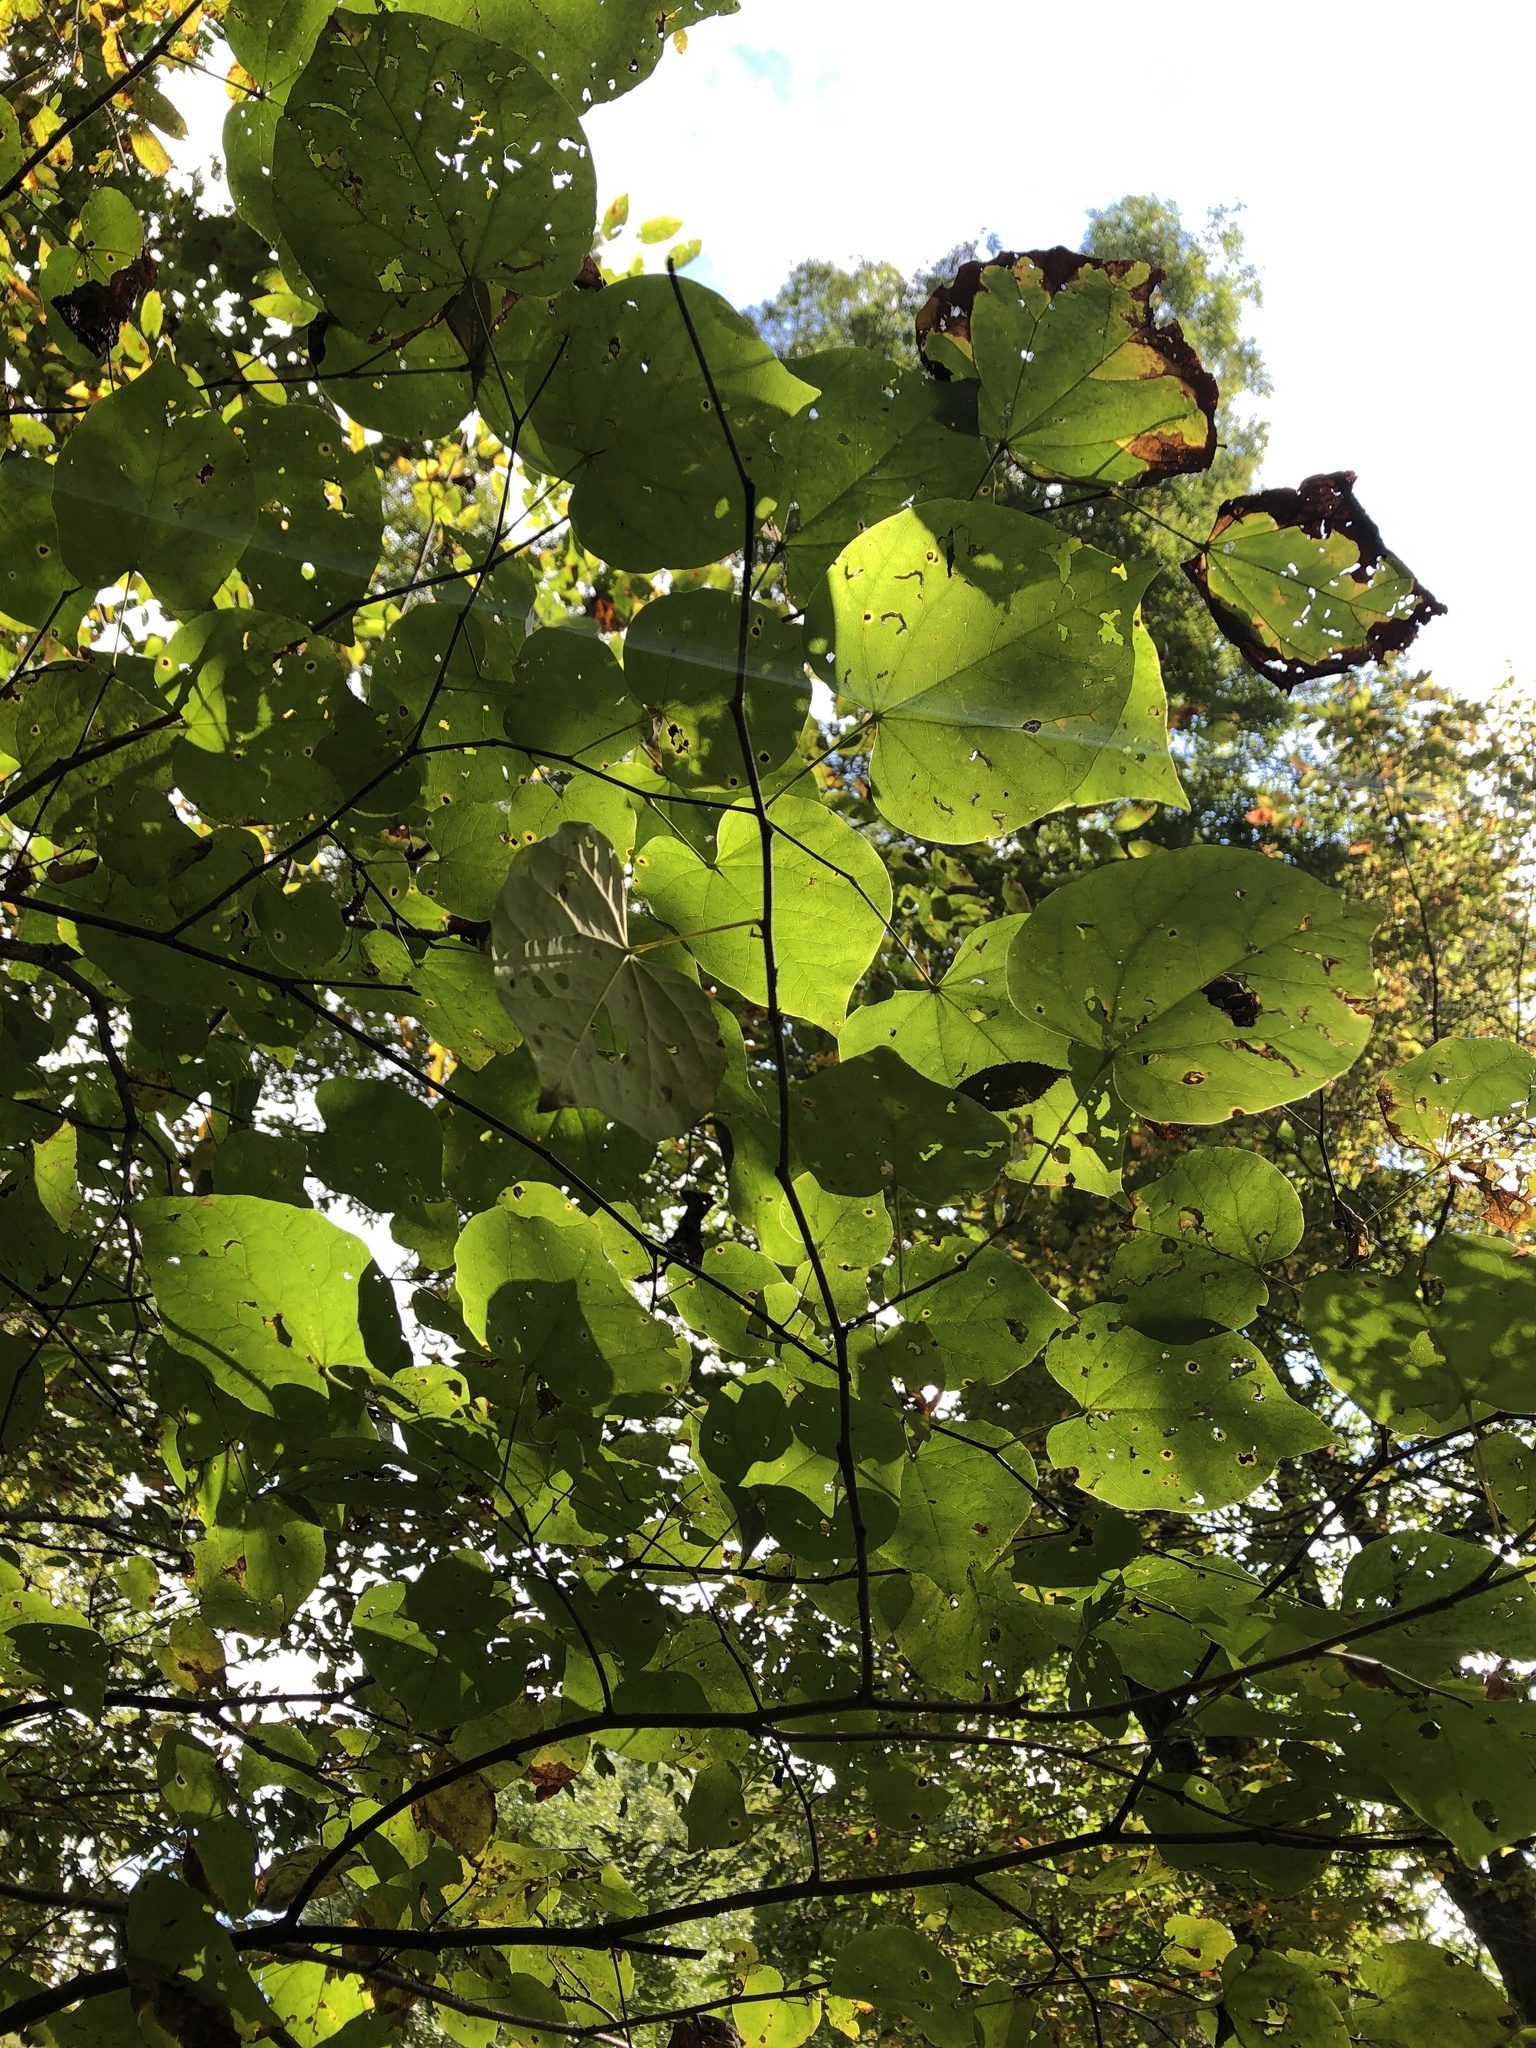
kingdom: Plantae
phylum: Tracheophyta
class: Magnoliopsida
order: Fabales
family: Fabaceae
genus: Cercis
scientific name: Cercis canadensis
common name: Eastern redbud
